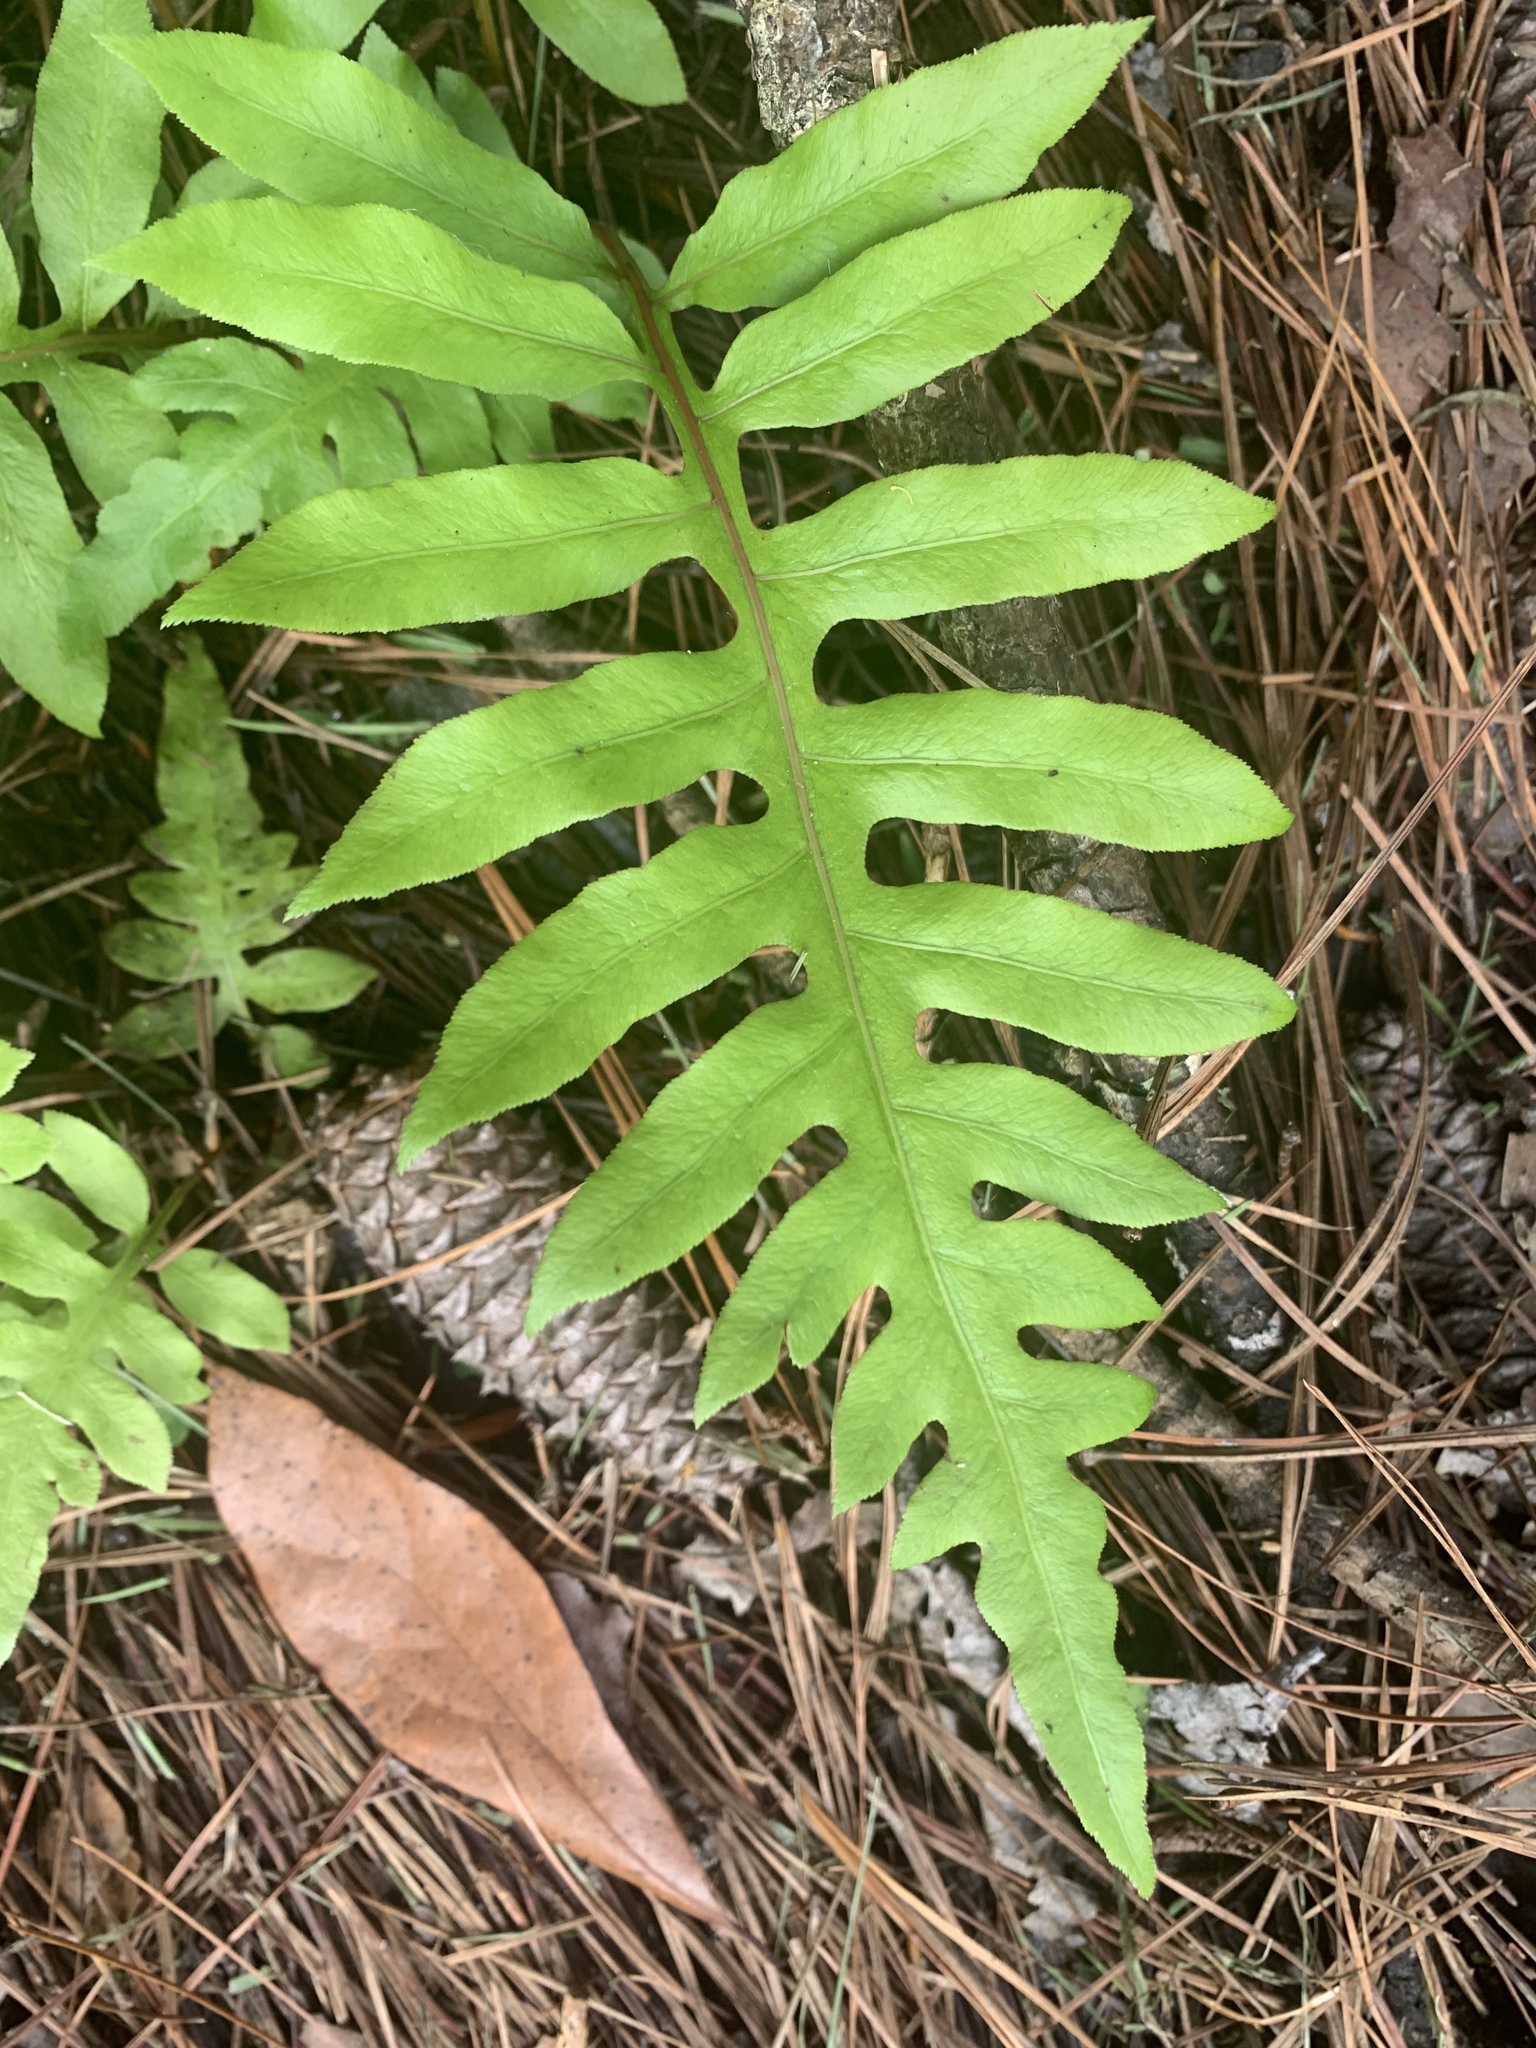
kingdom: Plantae
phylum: Tracheophyta
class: Polypodiopsida
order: Polypodiales
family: Blechnaceae
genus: Lorinseria
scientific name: Lorinseria areolata
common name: Dwarf chain fern
